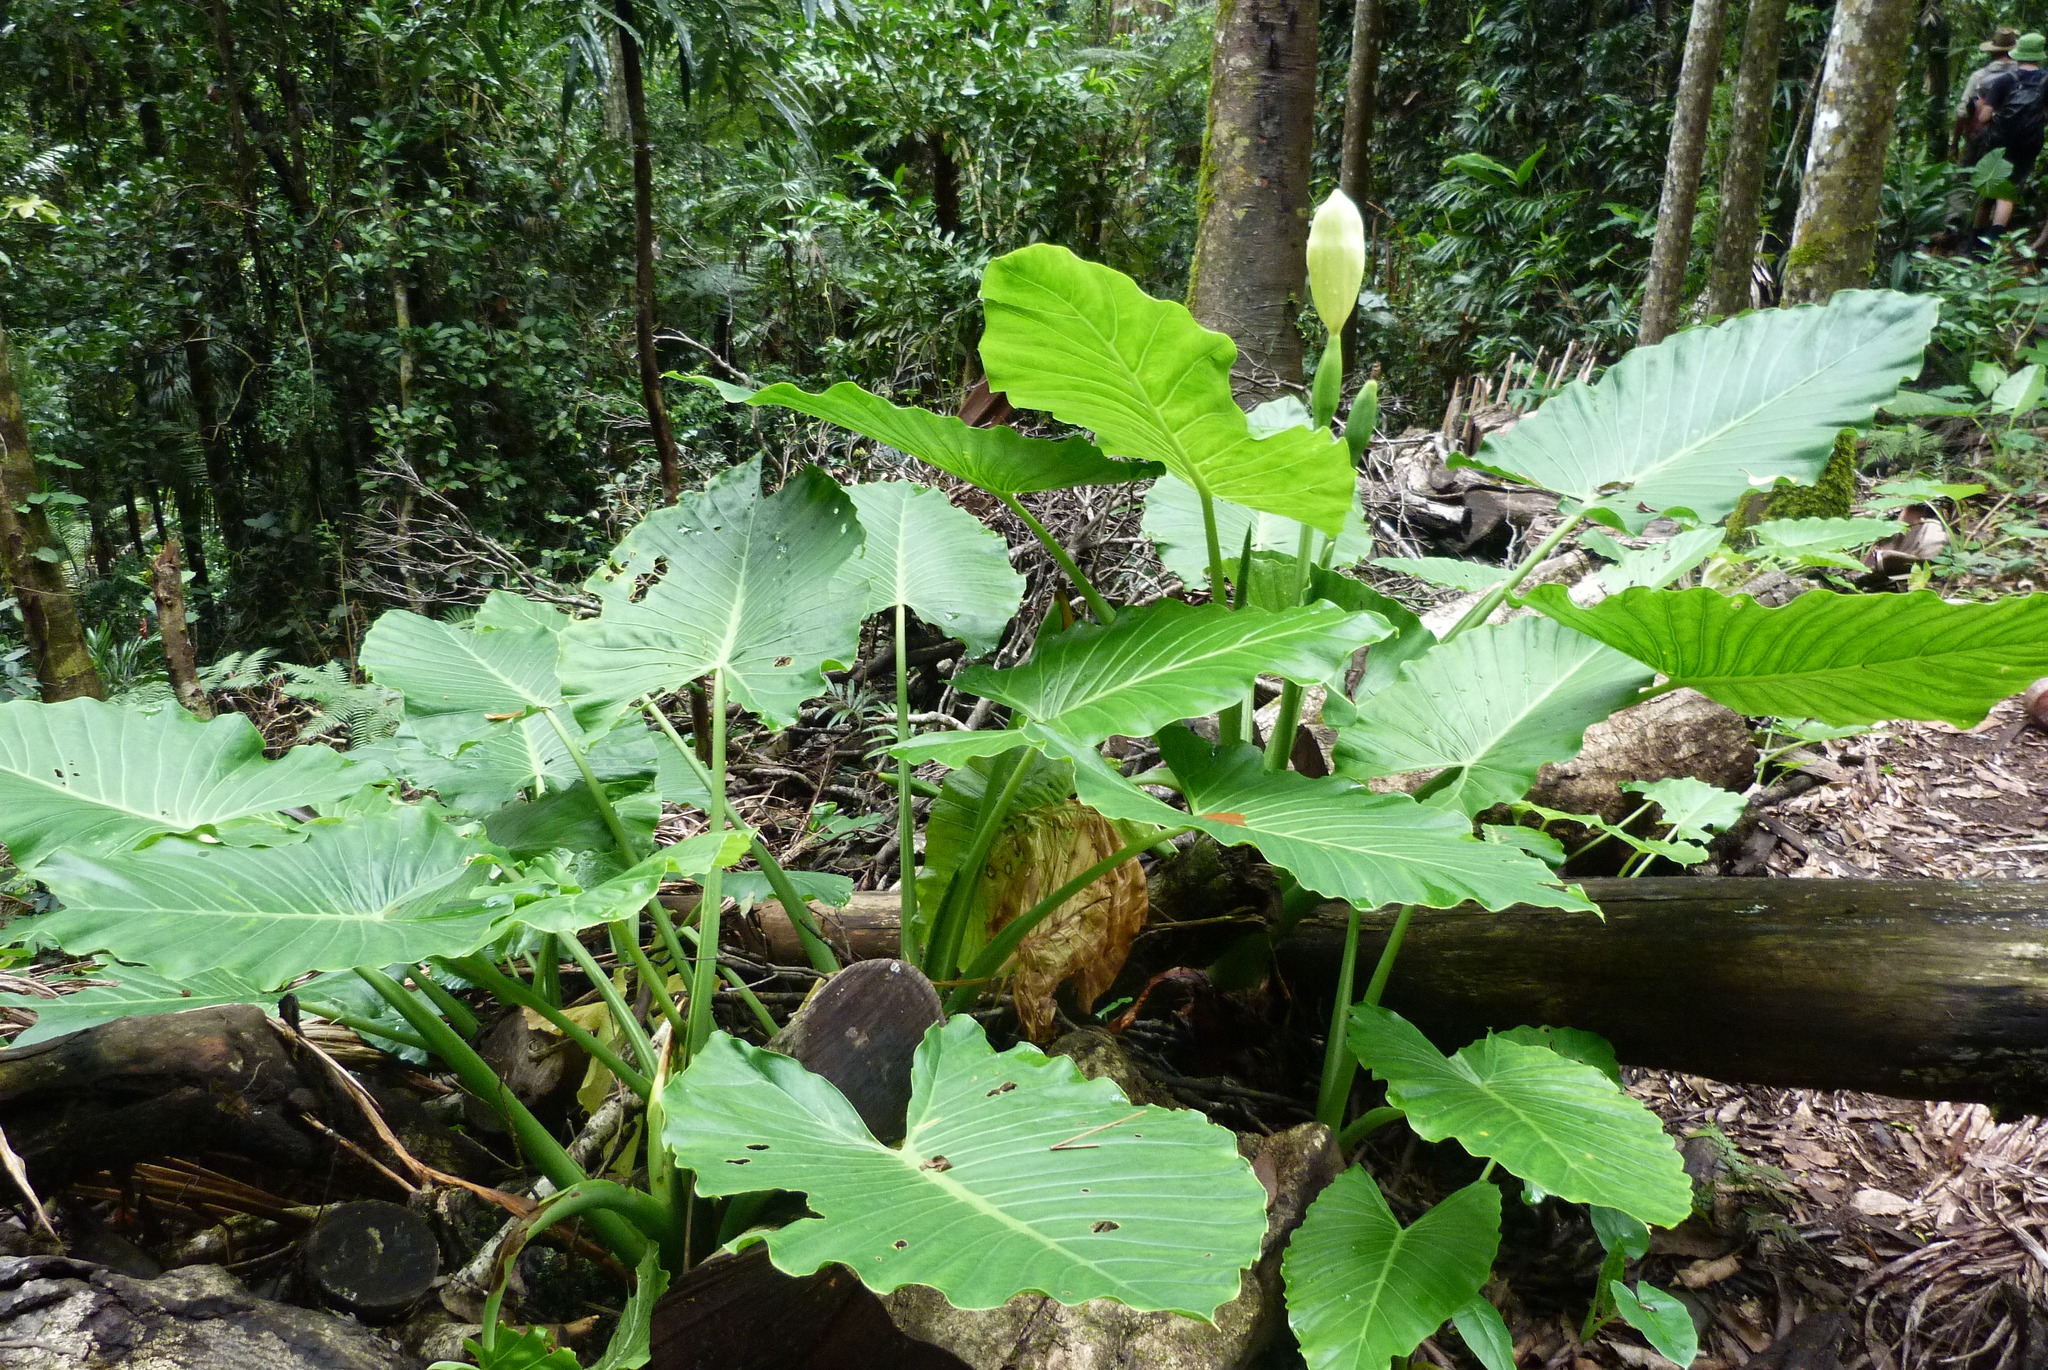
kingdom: Plantae
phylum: Tracheophyta
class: Liliopsida
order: Alismatales
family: Araceae
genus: Alocasia
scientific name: Alocasia brisbanensis
